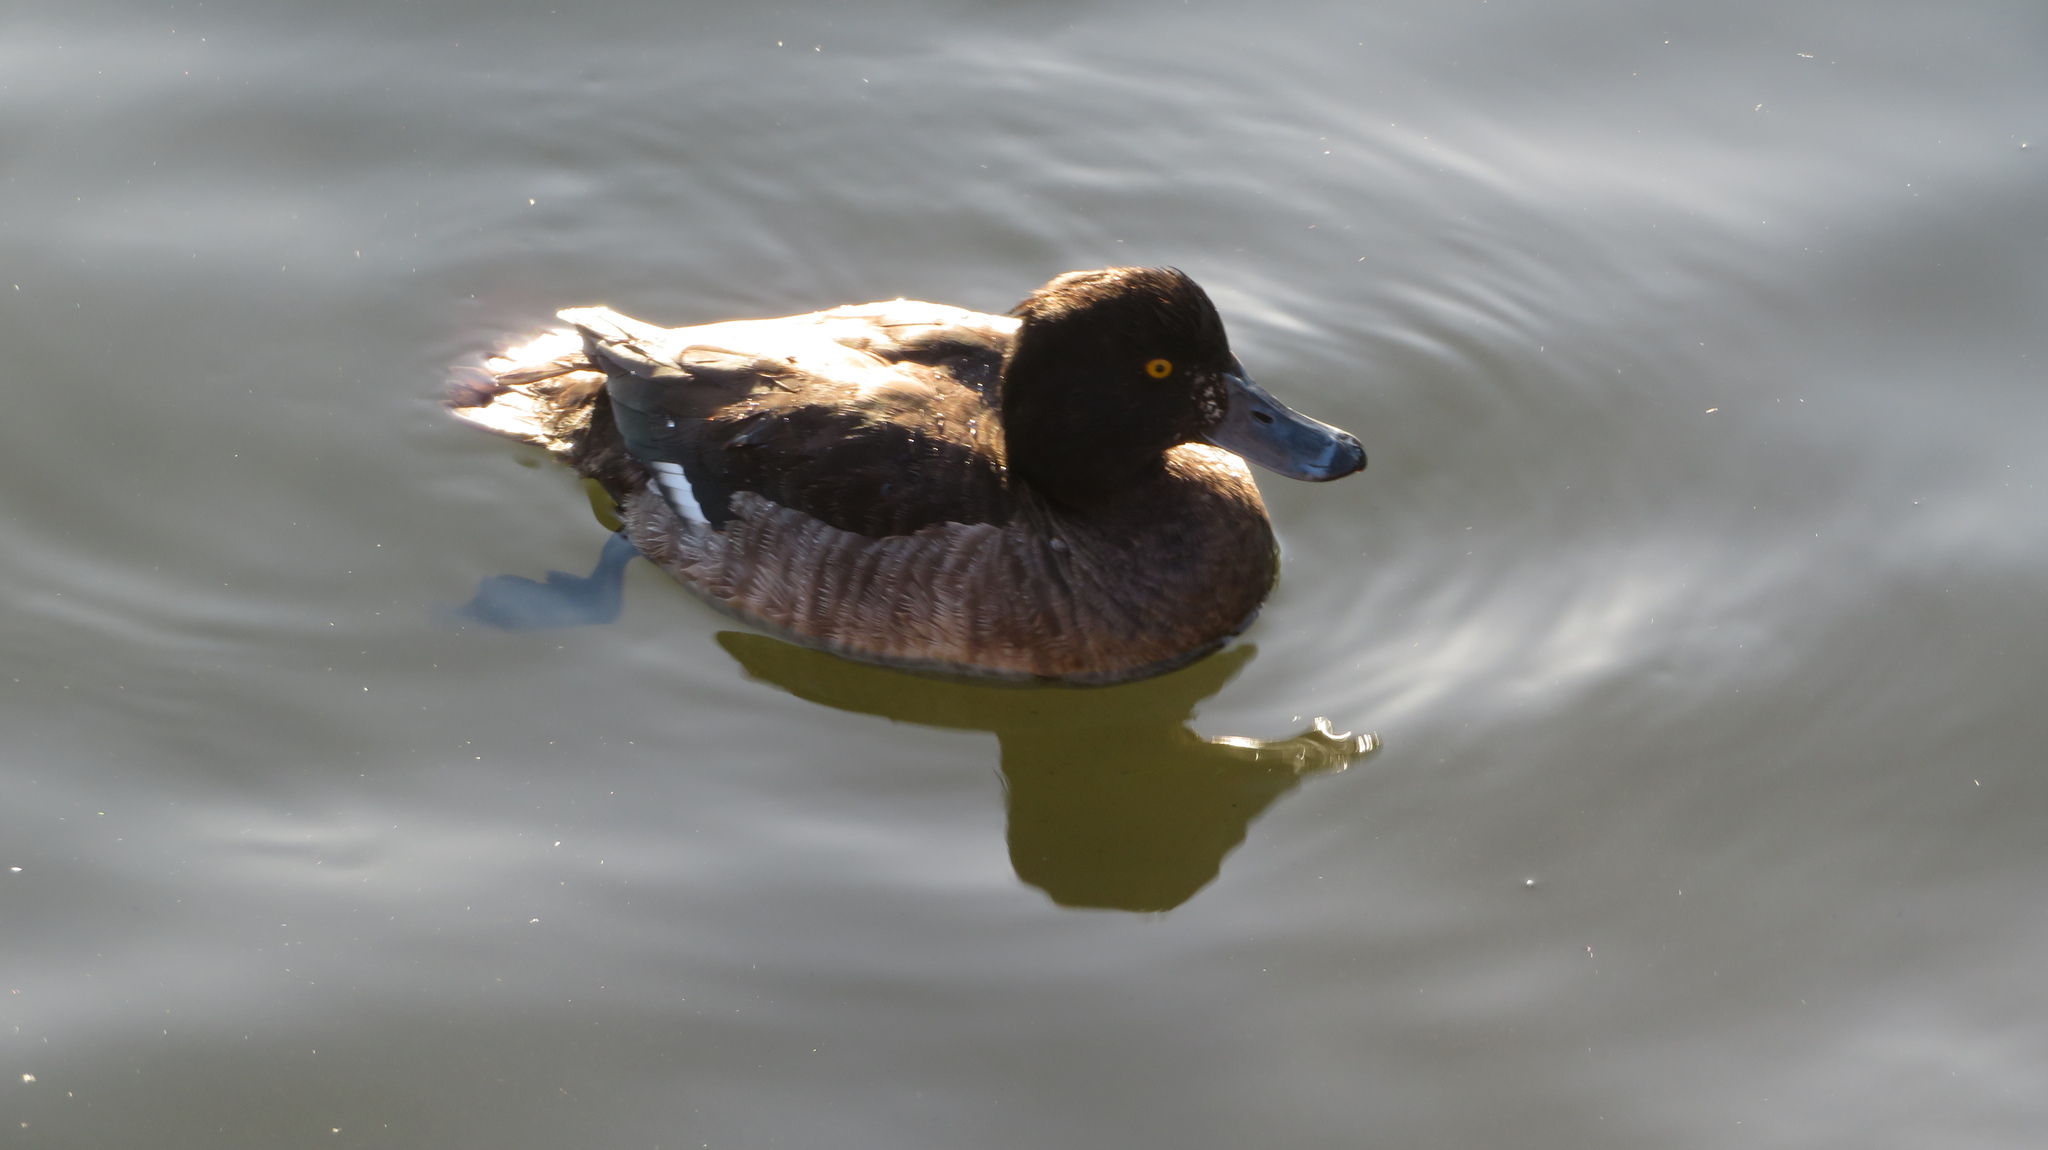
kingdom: Animalia
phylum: Chordata
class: Aves
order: Anseriformes
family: Anatidae
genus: Aythya
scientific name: Aythya fuligula
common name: Tufted duck
